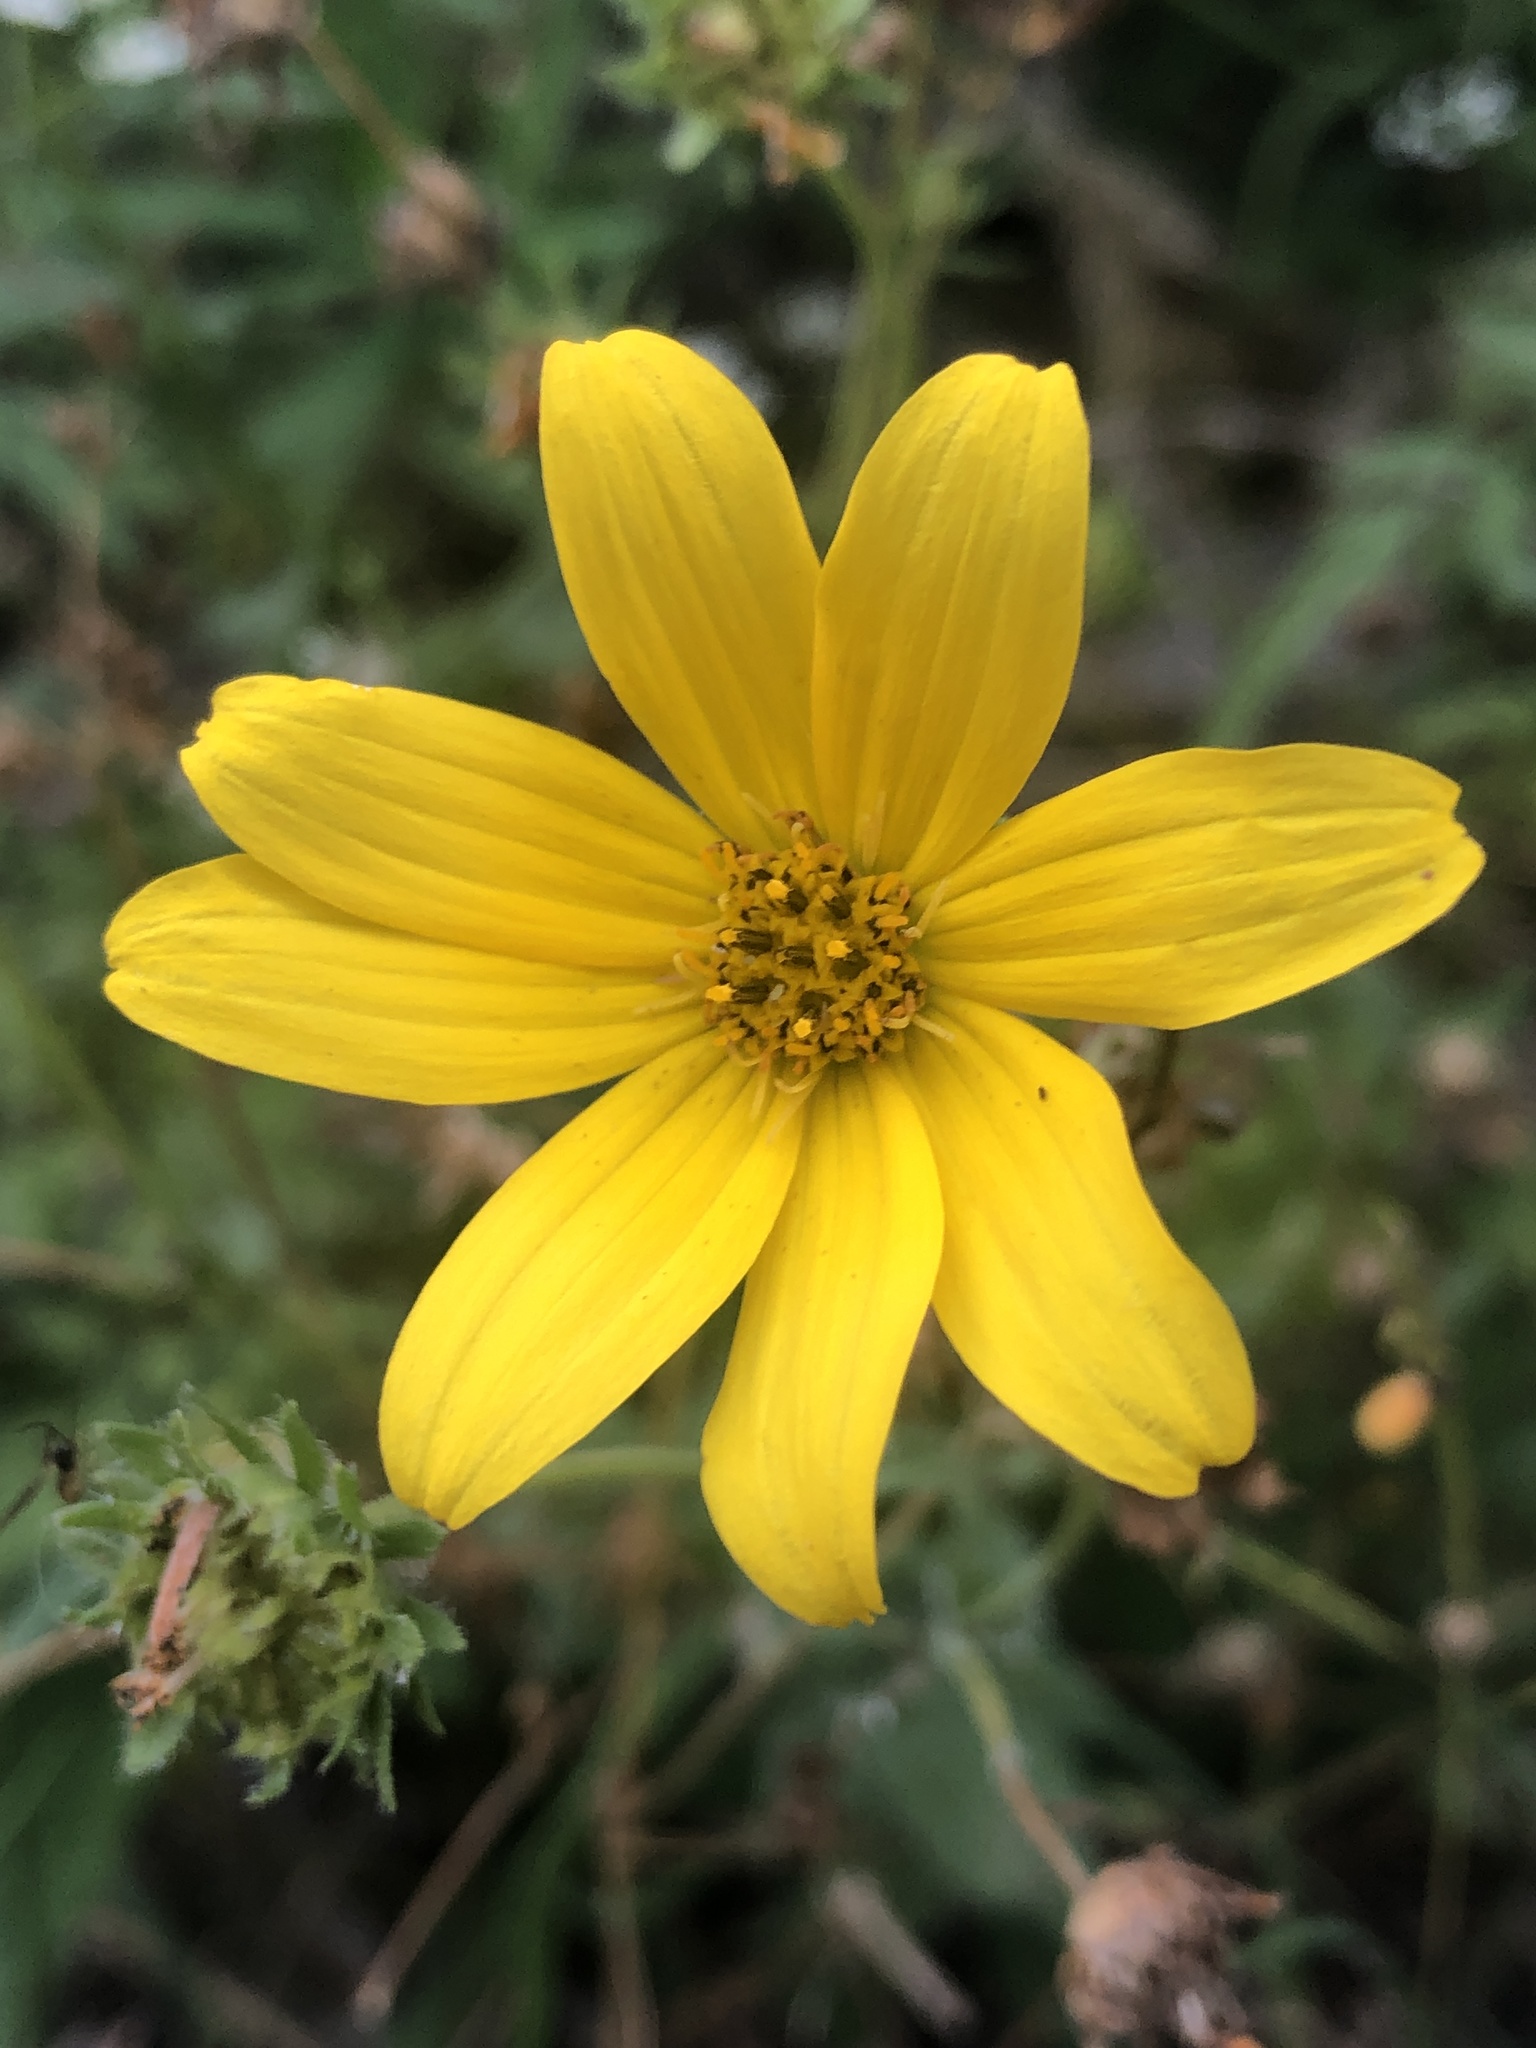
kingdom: Plantae
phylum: Tracheophyta
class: Magnoliopsida
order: Asterales
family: Asteraceae
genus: Engelmannia
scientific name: Engelmannia peristenia
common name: Engelmann's daisy
